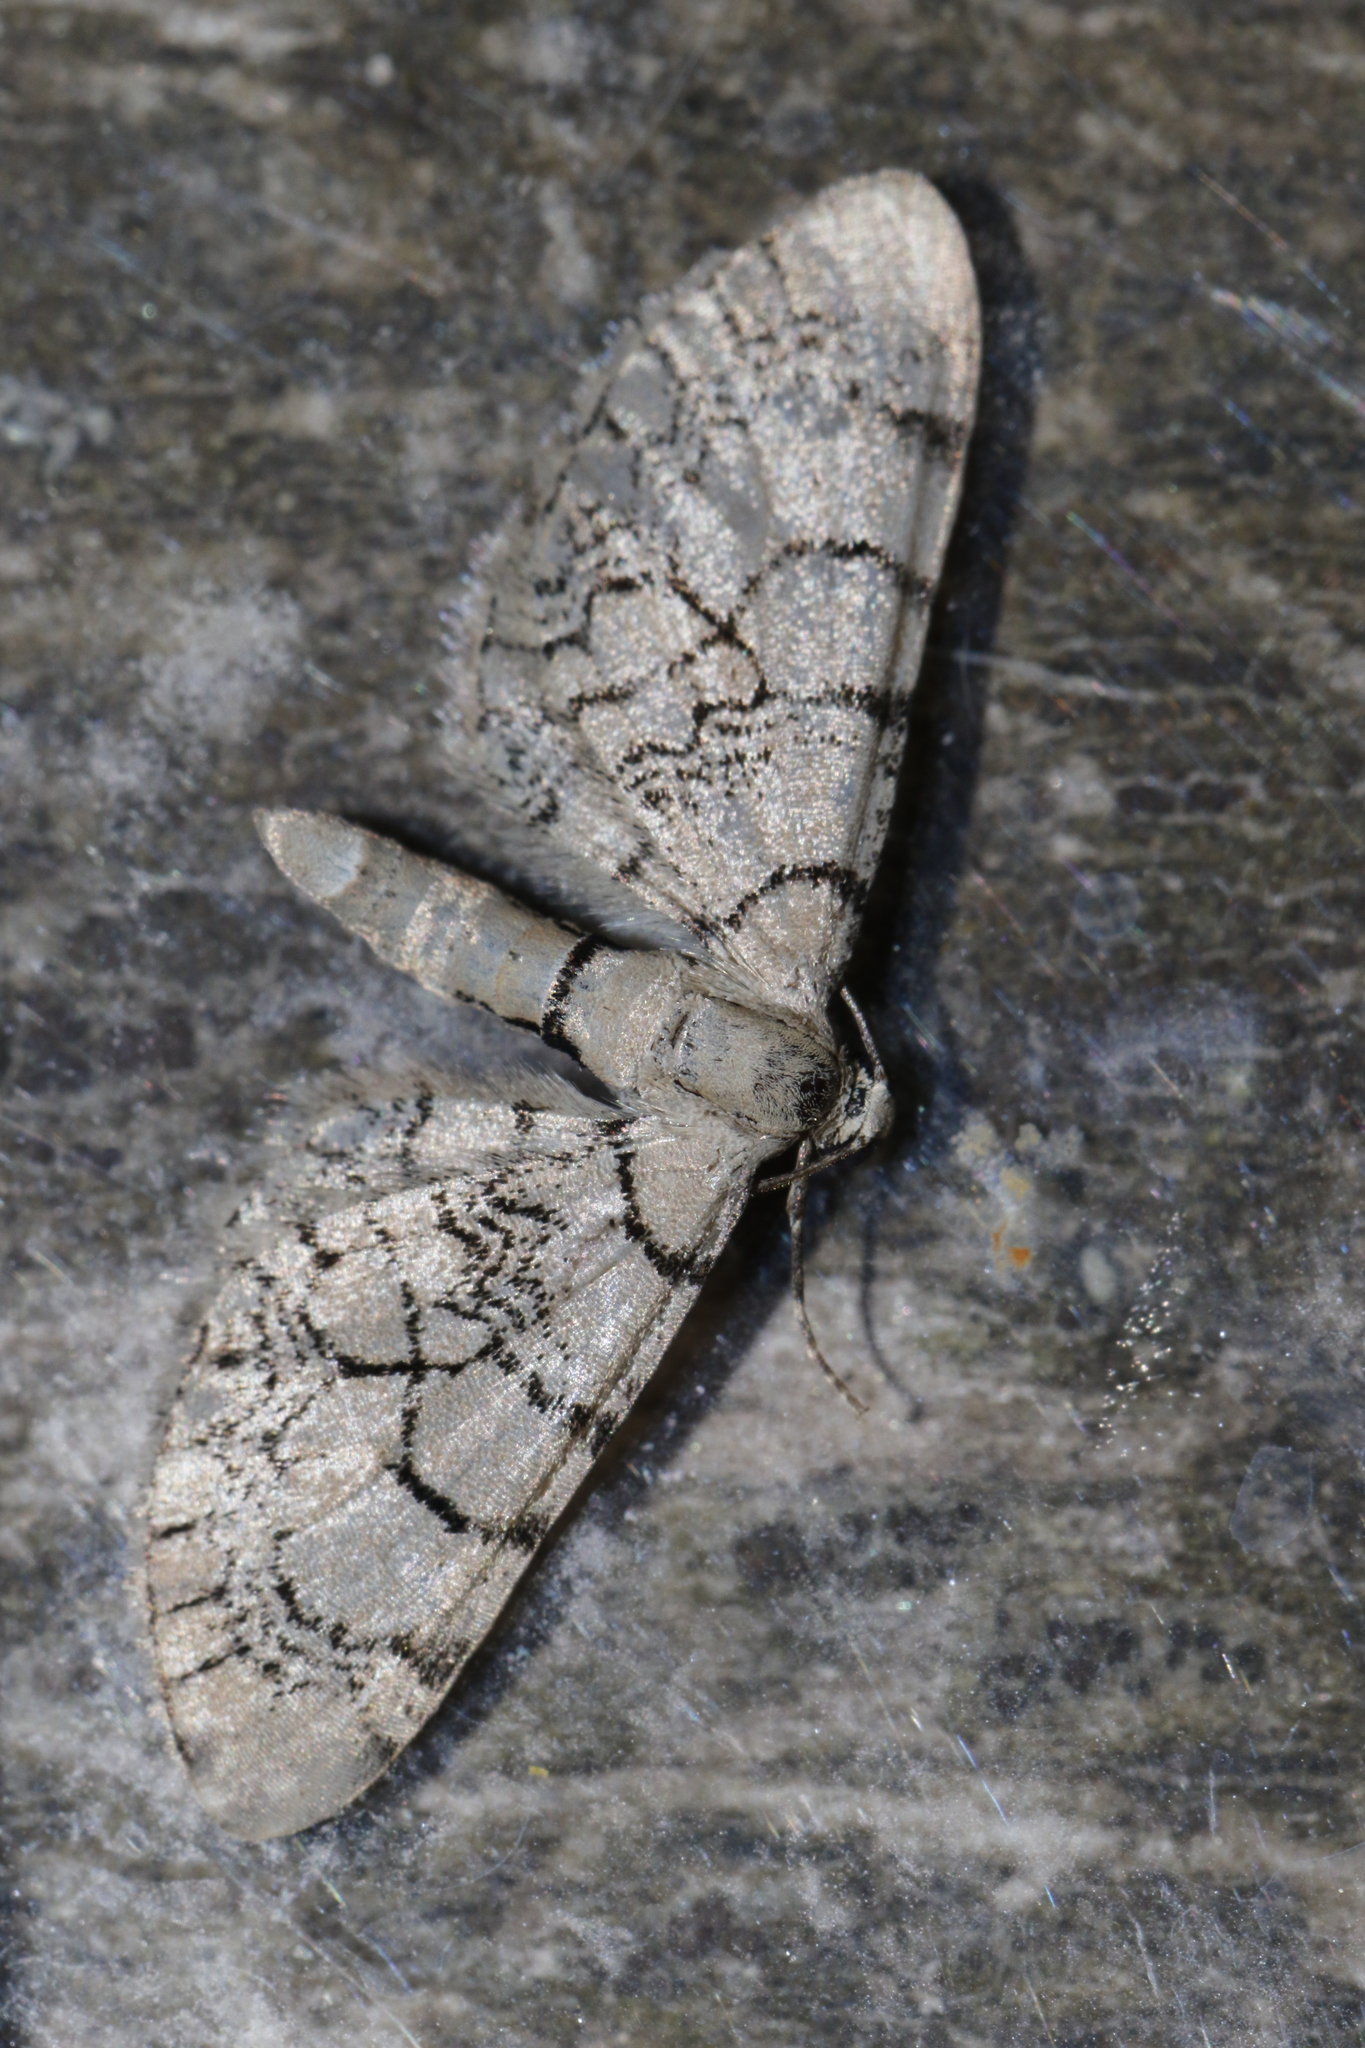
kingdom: Animalia
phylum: Arthropoda
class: Insecta
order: Lepidoptera
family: Geometridae
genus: Eupithecia
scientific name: Eupithecia venosata
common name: Netted pug
